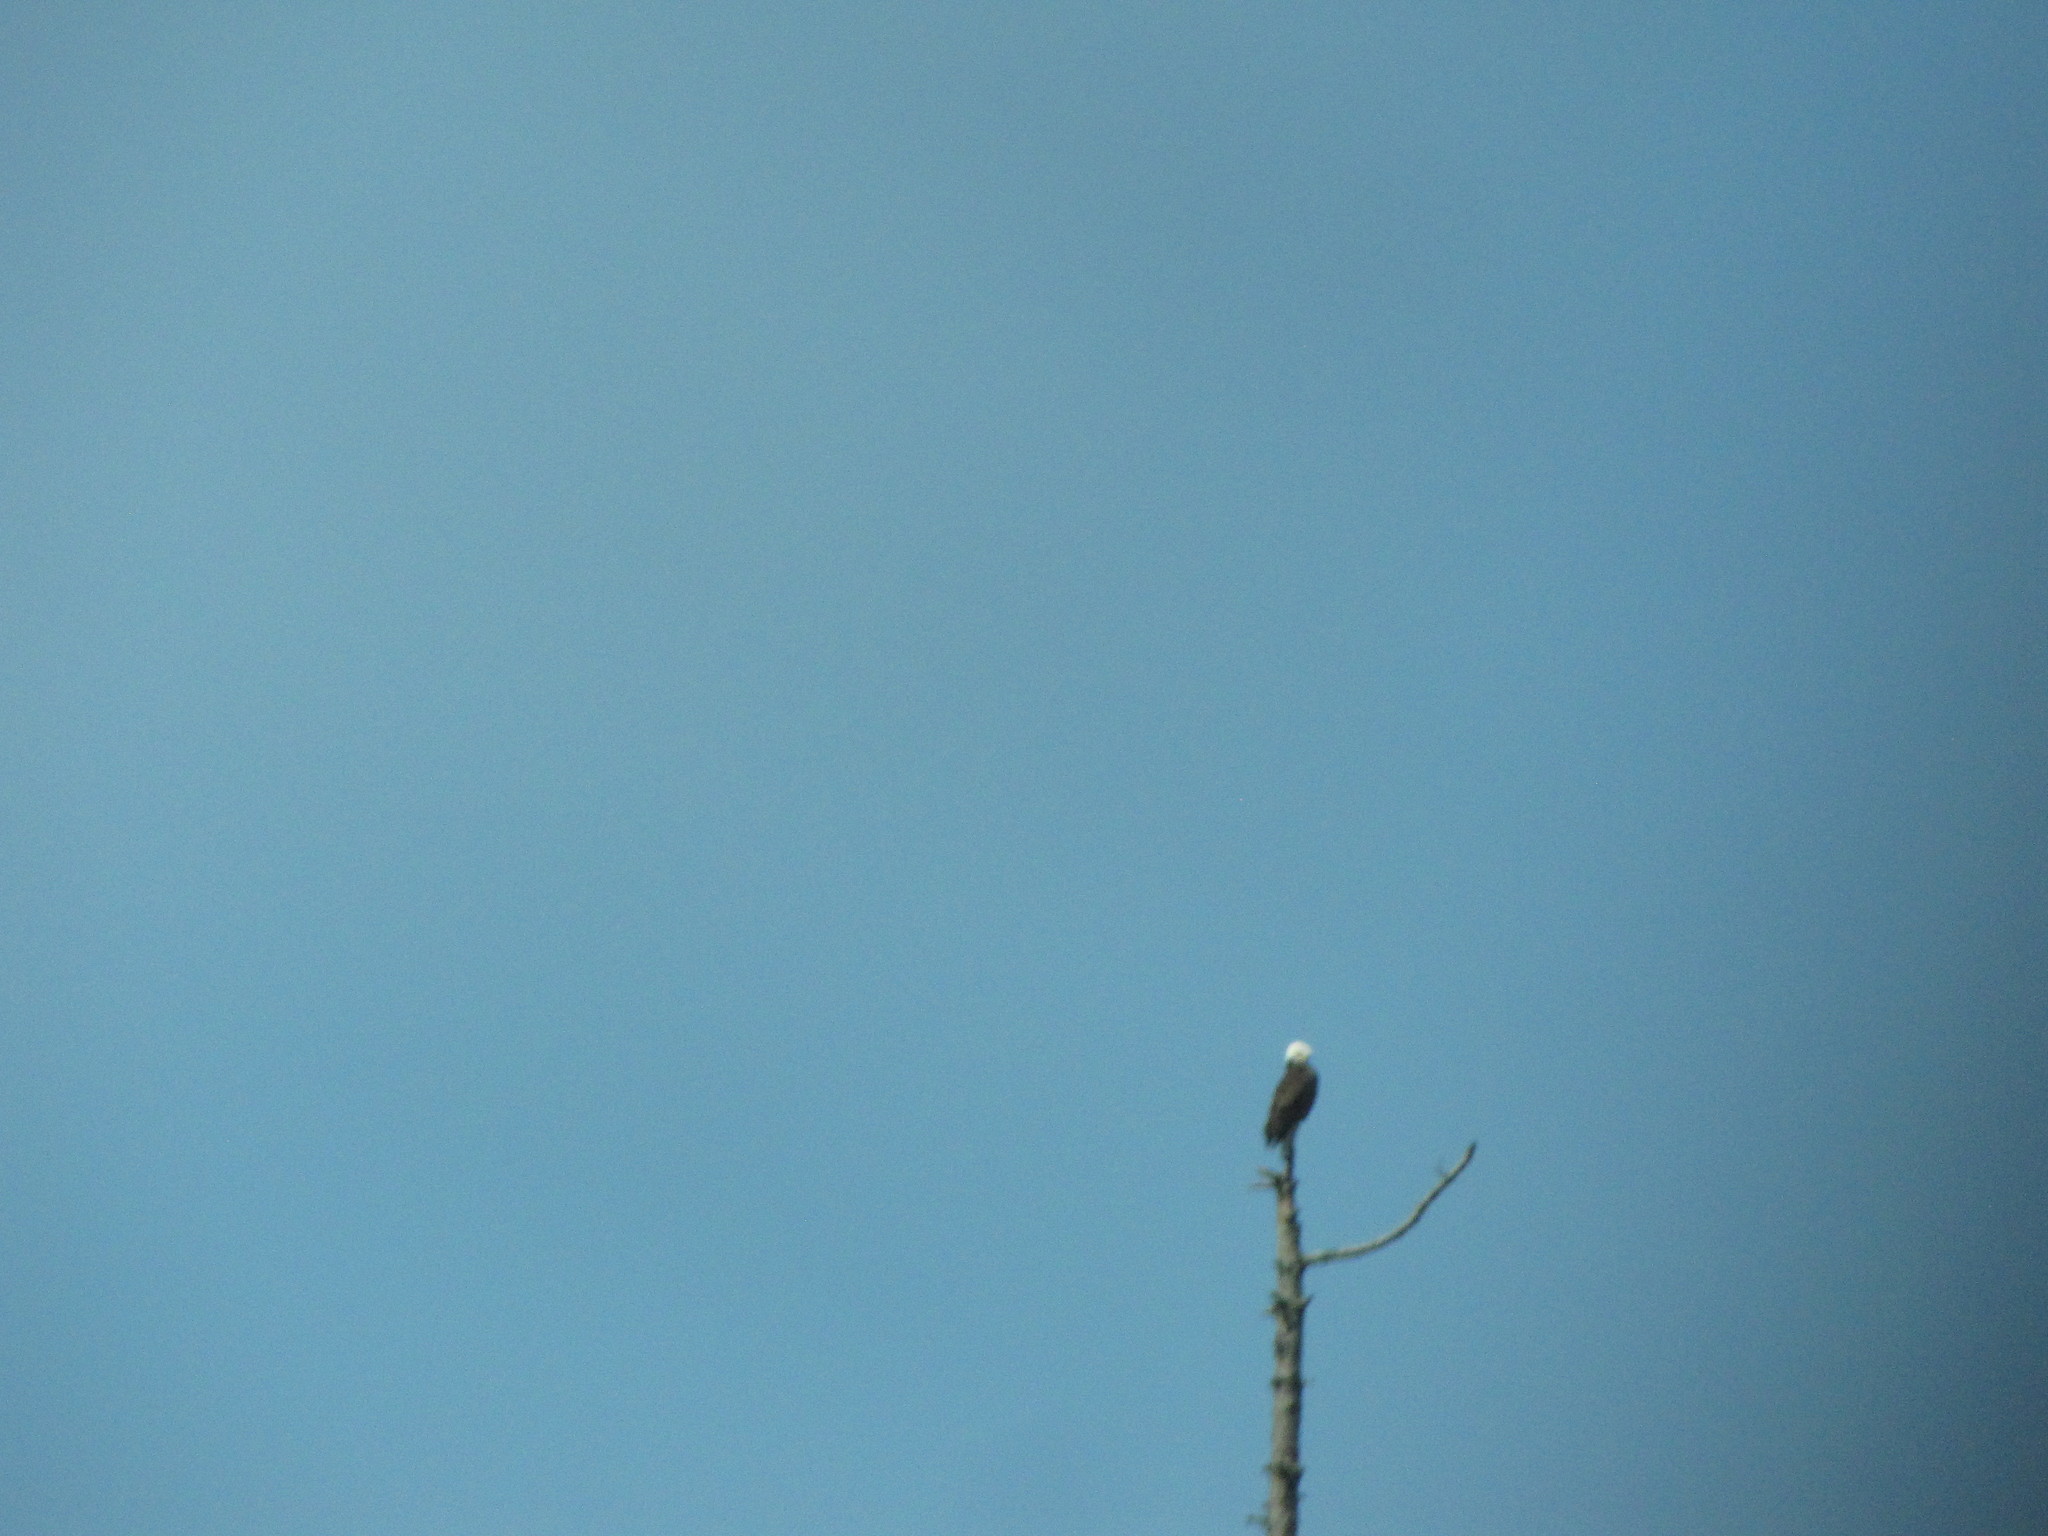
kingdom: Animalia
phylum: Chordata
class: Aves
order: Accipitriformes
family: Accipitridae
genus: Haliaeetus
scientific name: Haliaeetus leucocephalus
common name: Bald eagle
